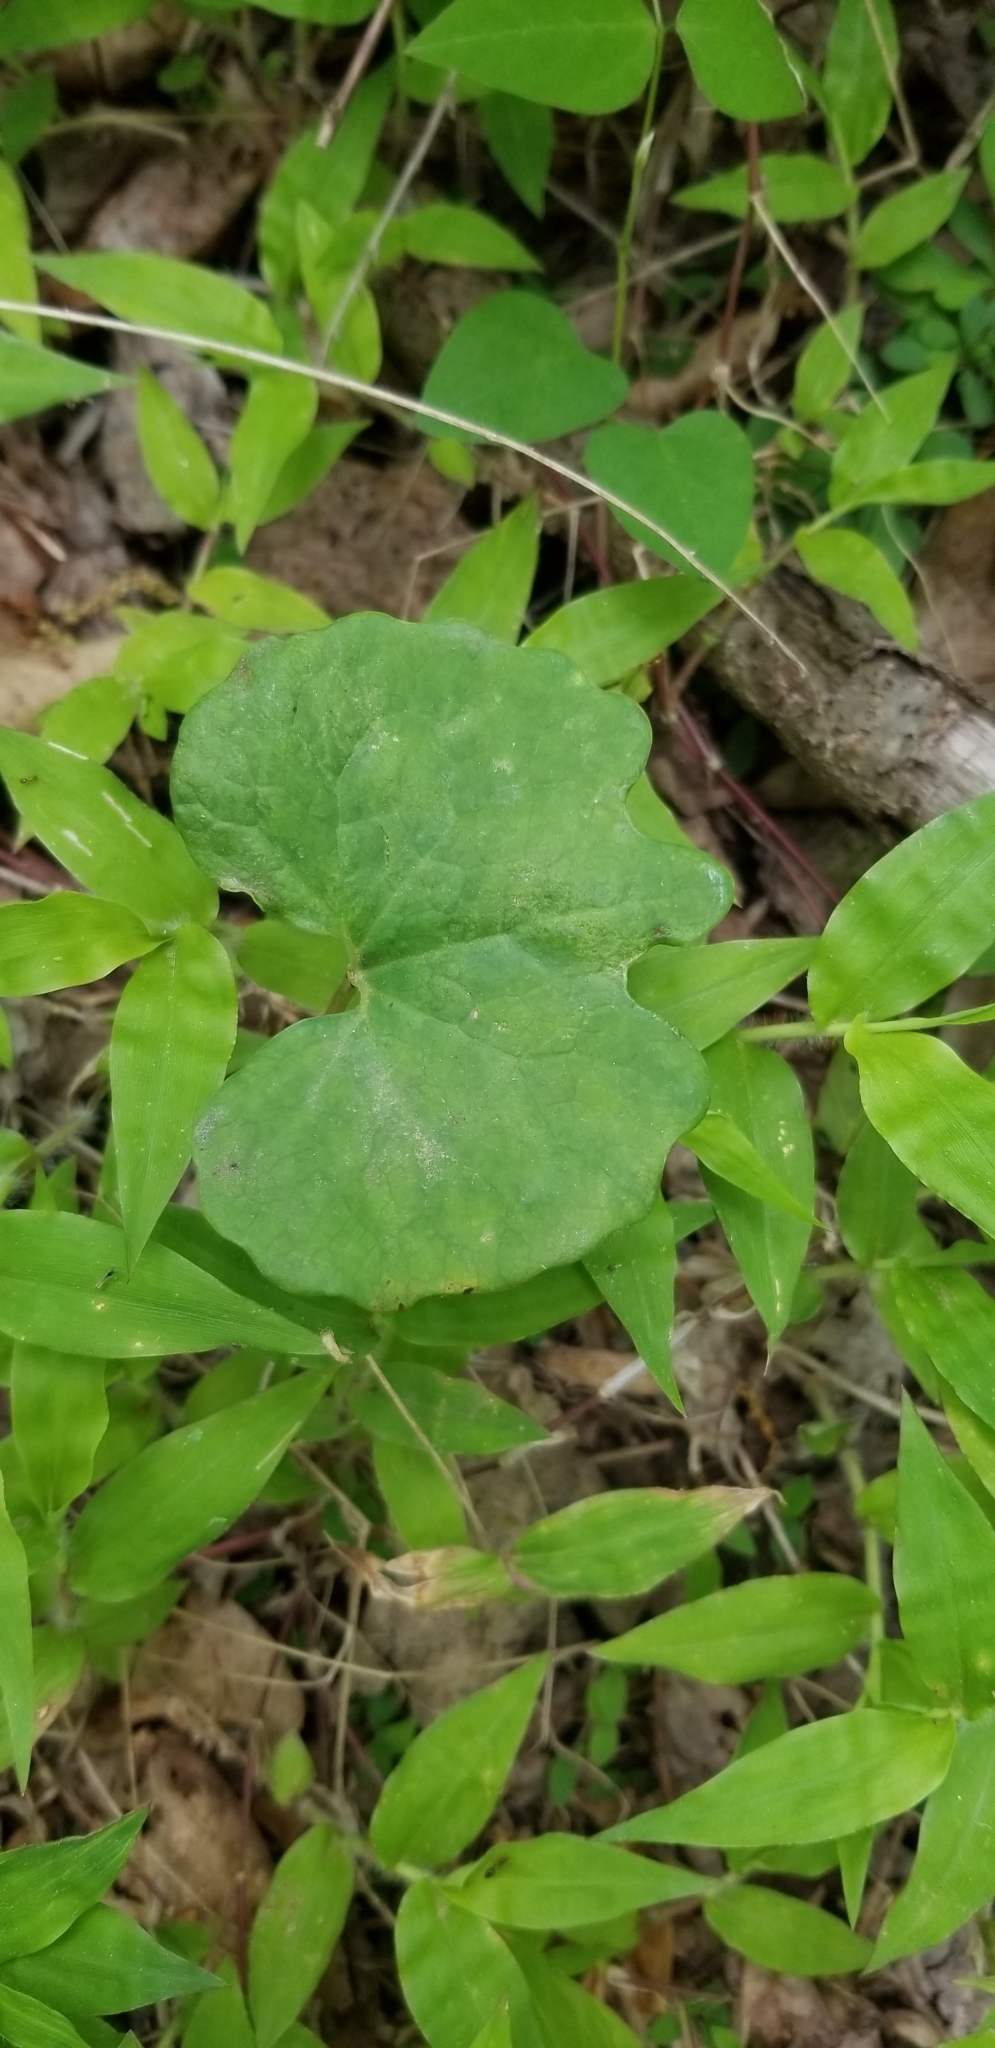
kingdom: Plantae
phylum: Tracheophyta
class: Magnoliopsida
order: Ranunculales
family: Papaveraceae
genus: Sanguinaria
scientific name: Sanguinaria canadensis
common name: Bloodroot
